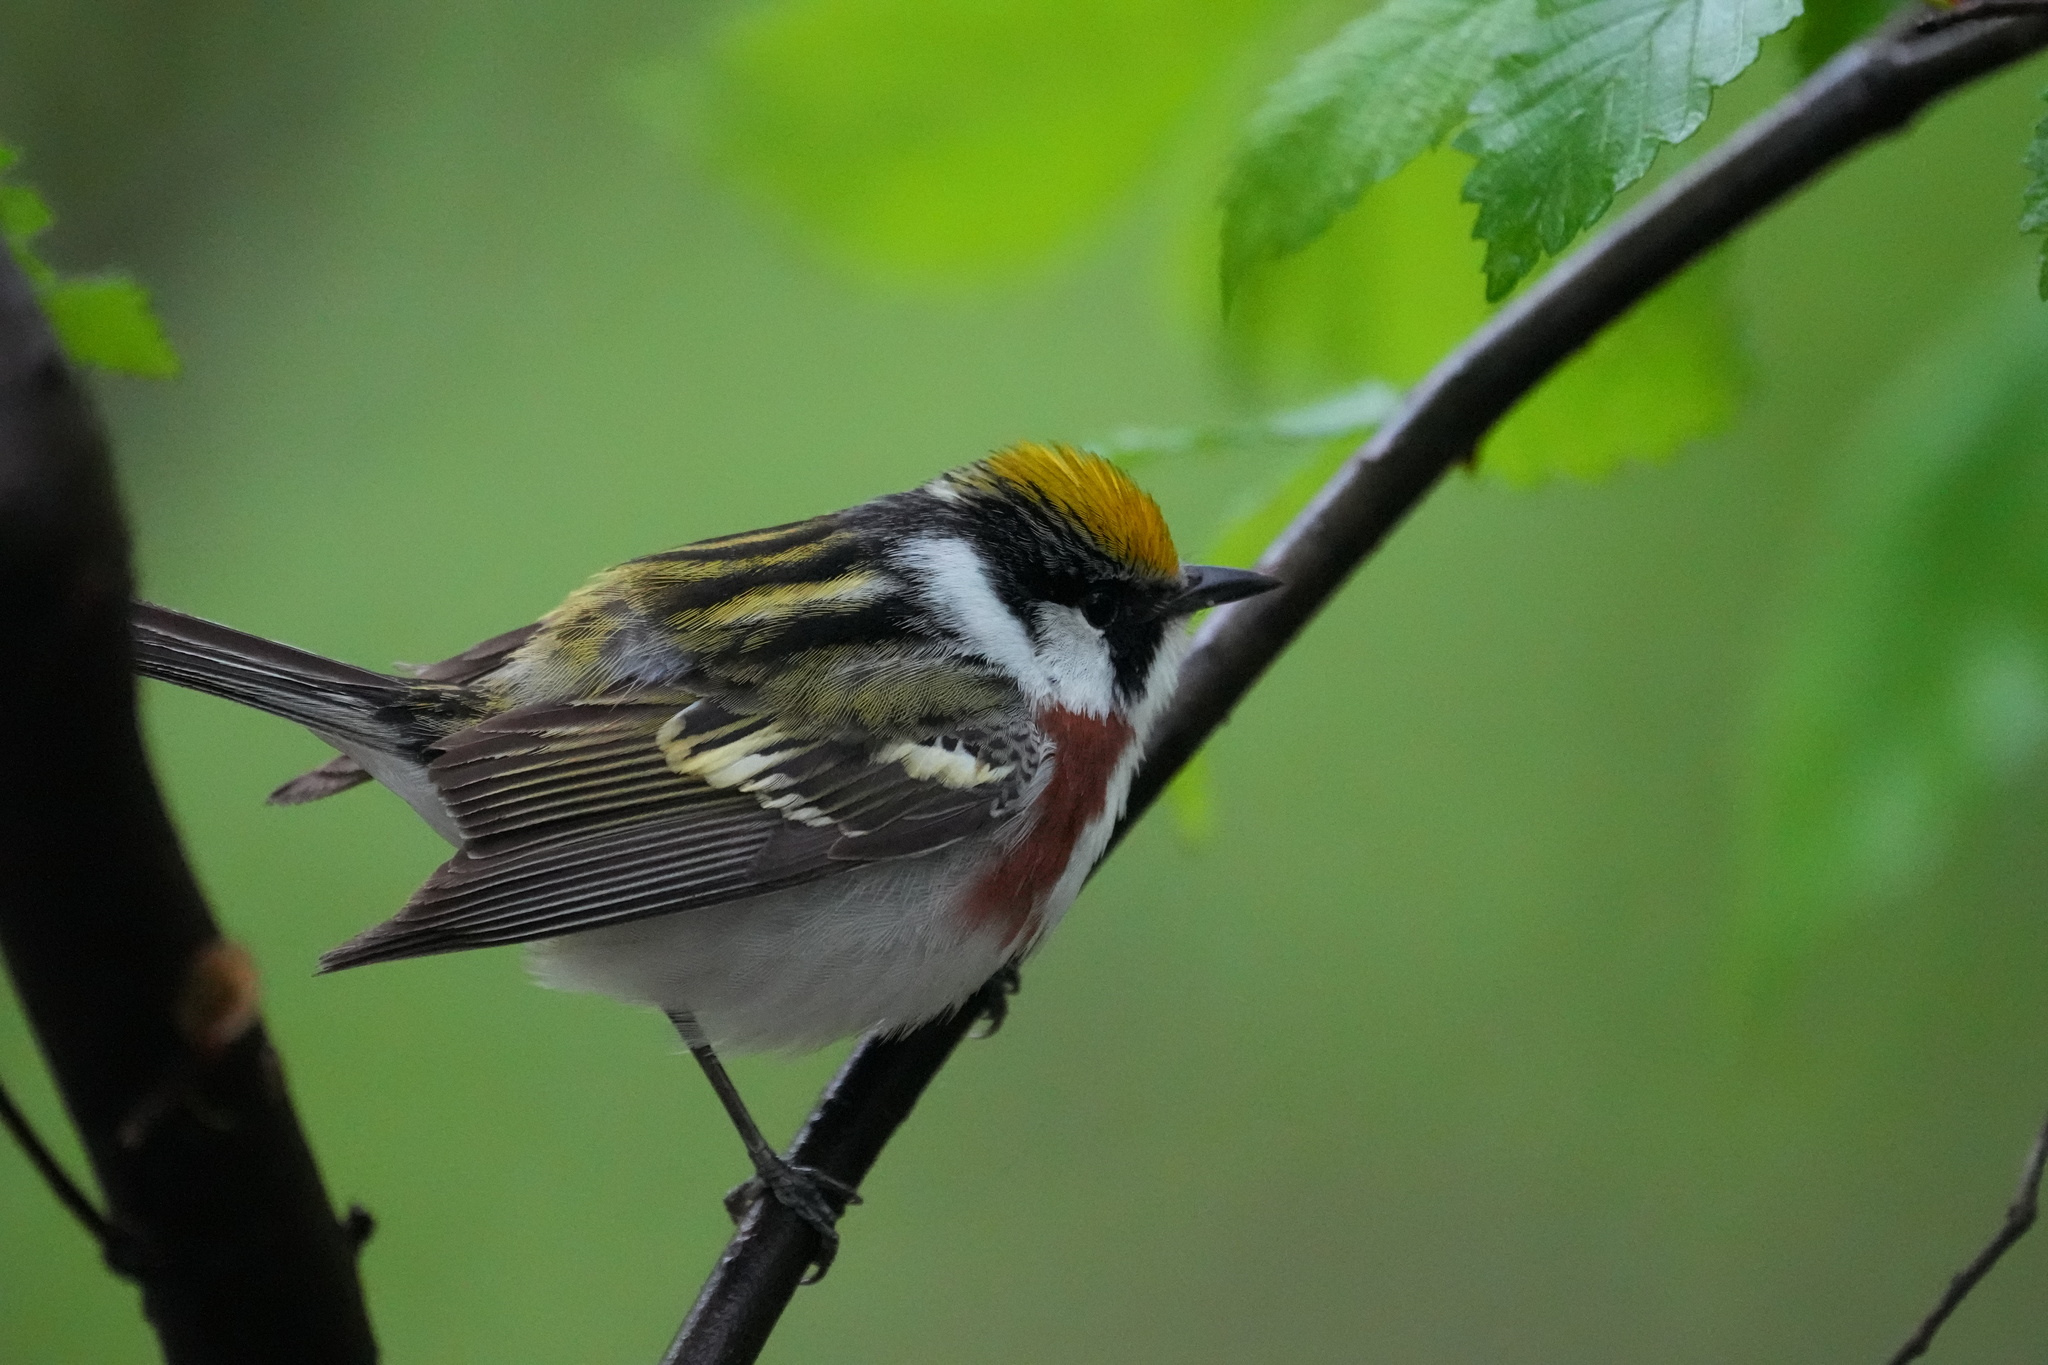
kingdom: Animalia
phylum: Chordata
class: Aves
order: Passeriformes
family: Parulidae
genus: Setophaga
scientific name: Setophaga pensylvanica
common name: Chestnut-sided warbler
